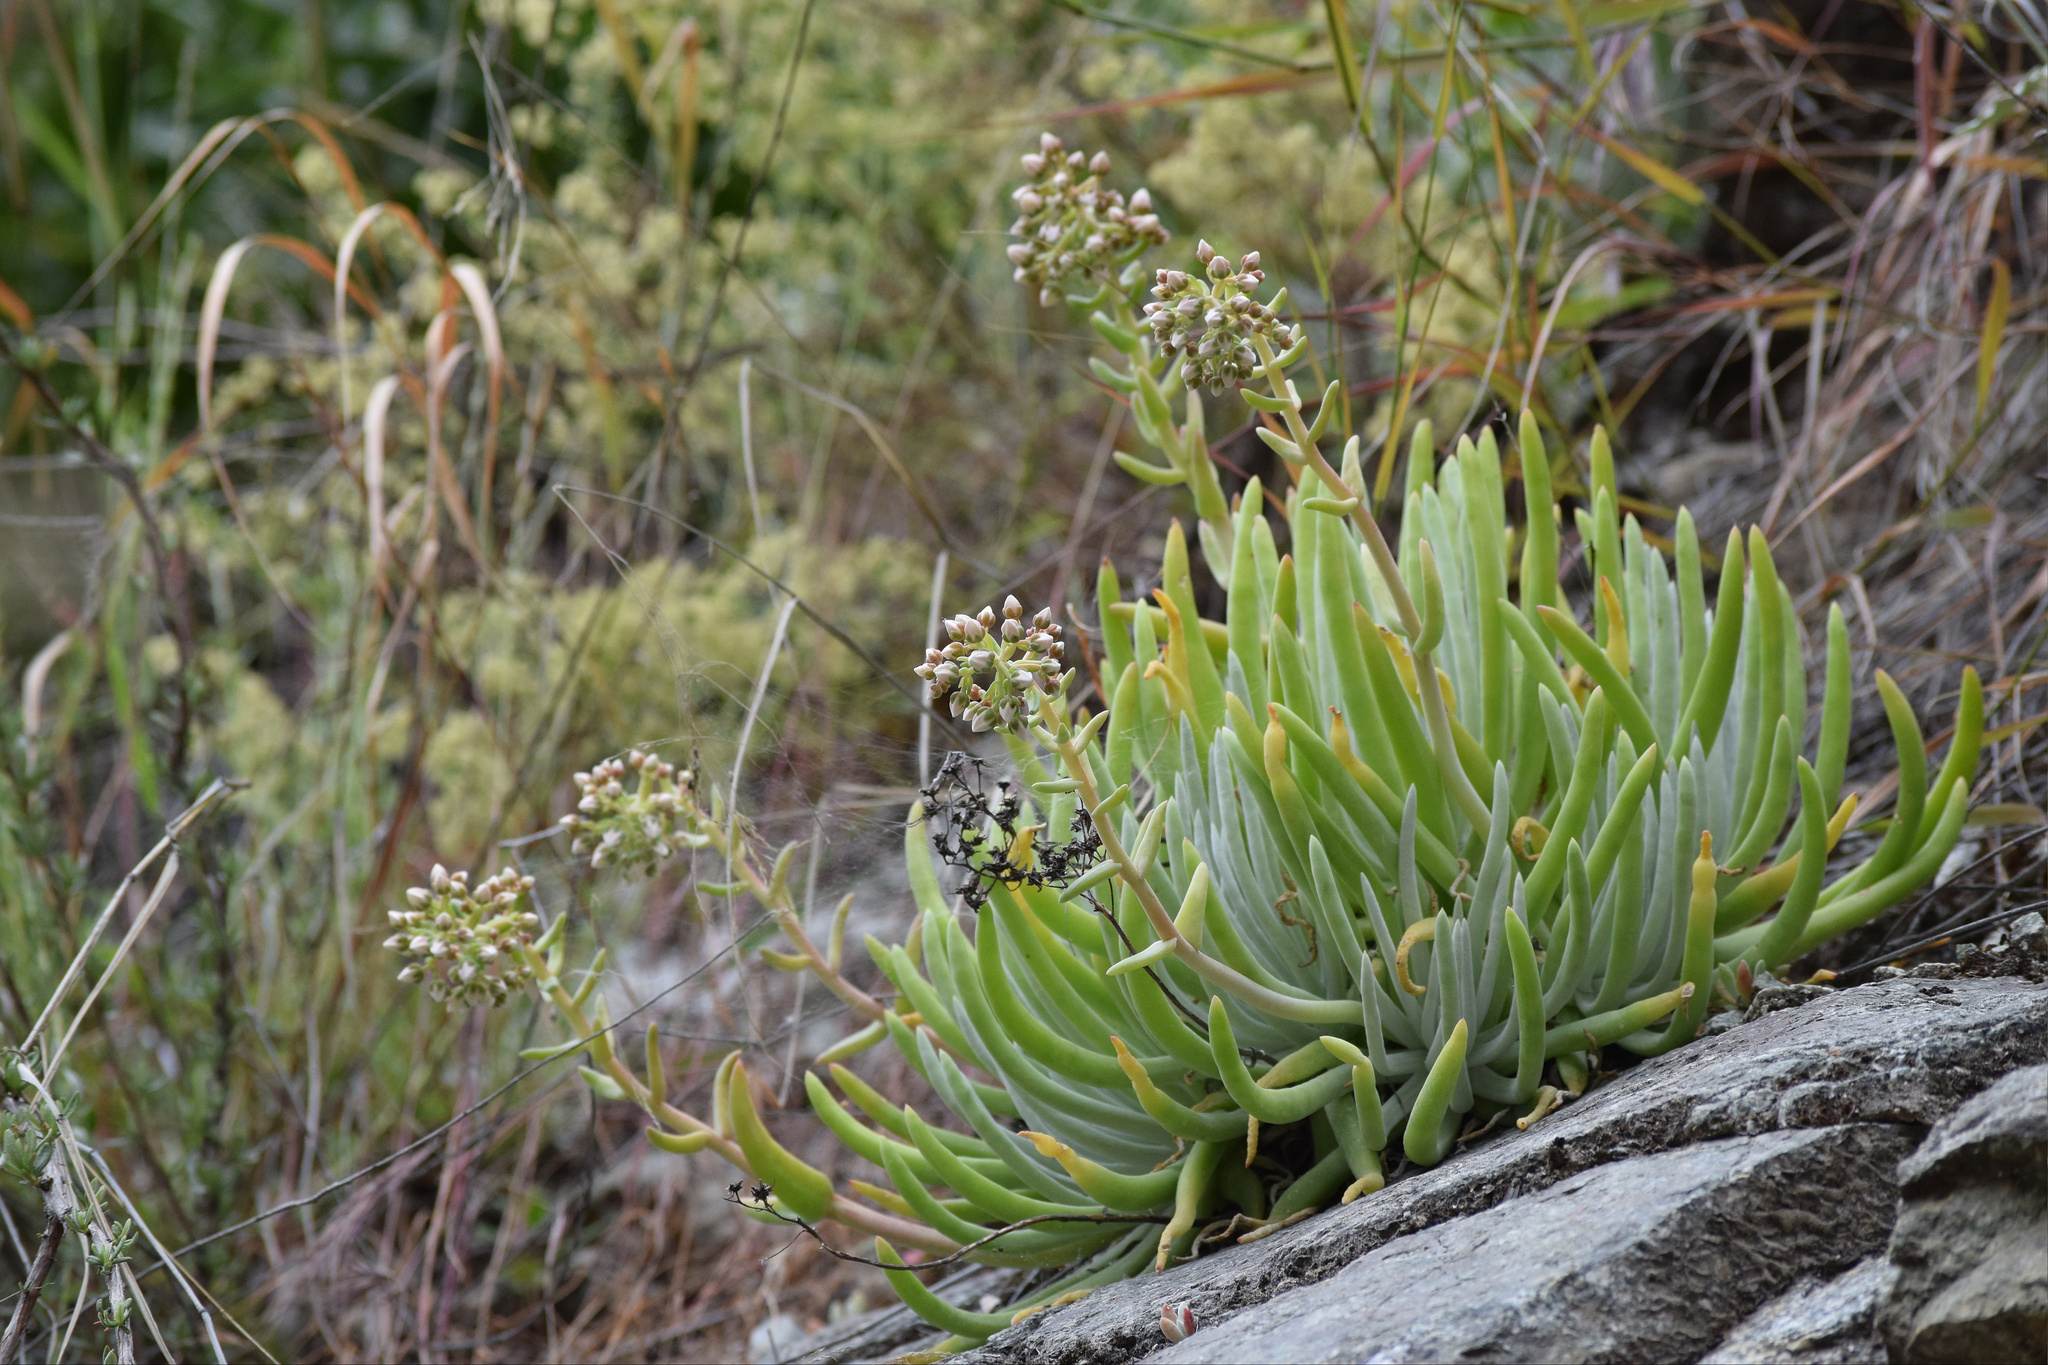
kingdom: Plantae
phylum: Tracheophyta
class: Magnoliopsida
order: Saxifragales
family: Crassulaceae
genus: Dudleya
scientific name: Dudleya densiflora
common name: San gabriel mountains dudleya
